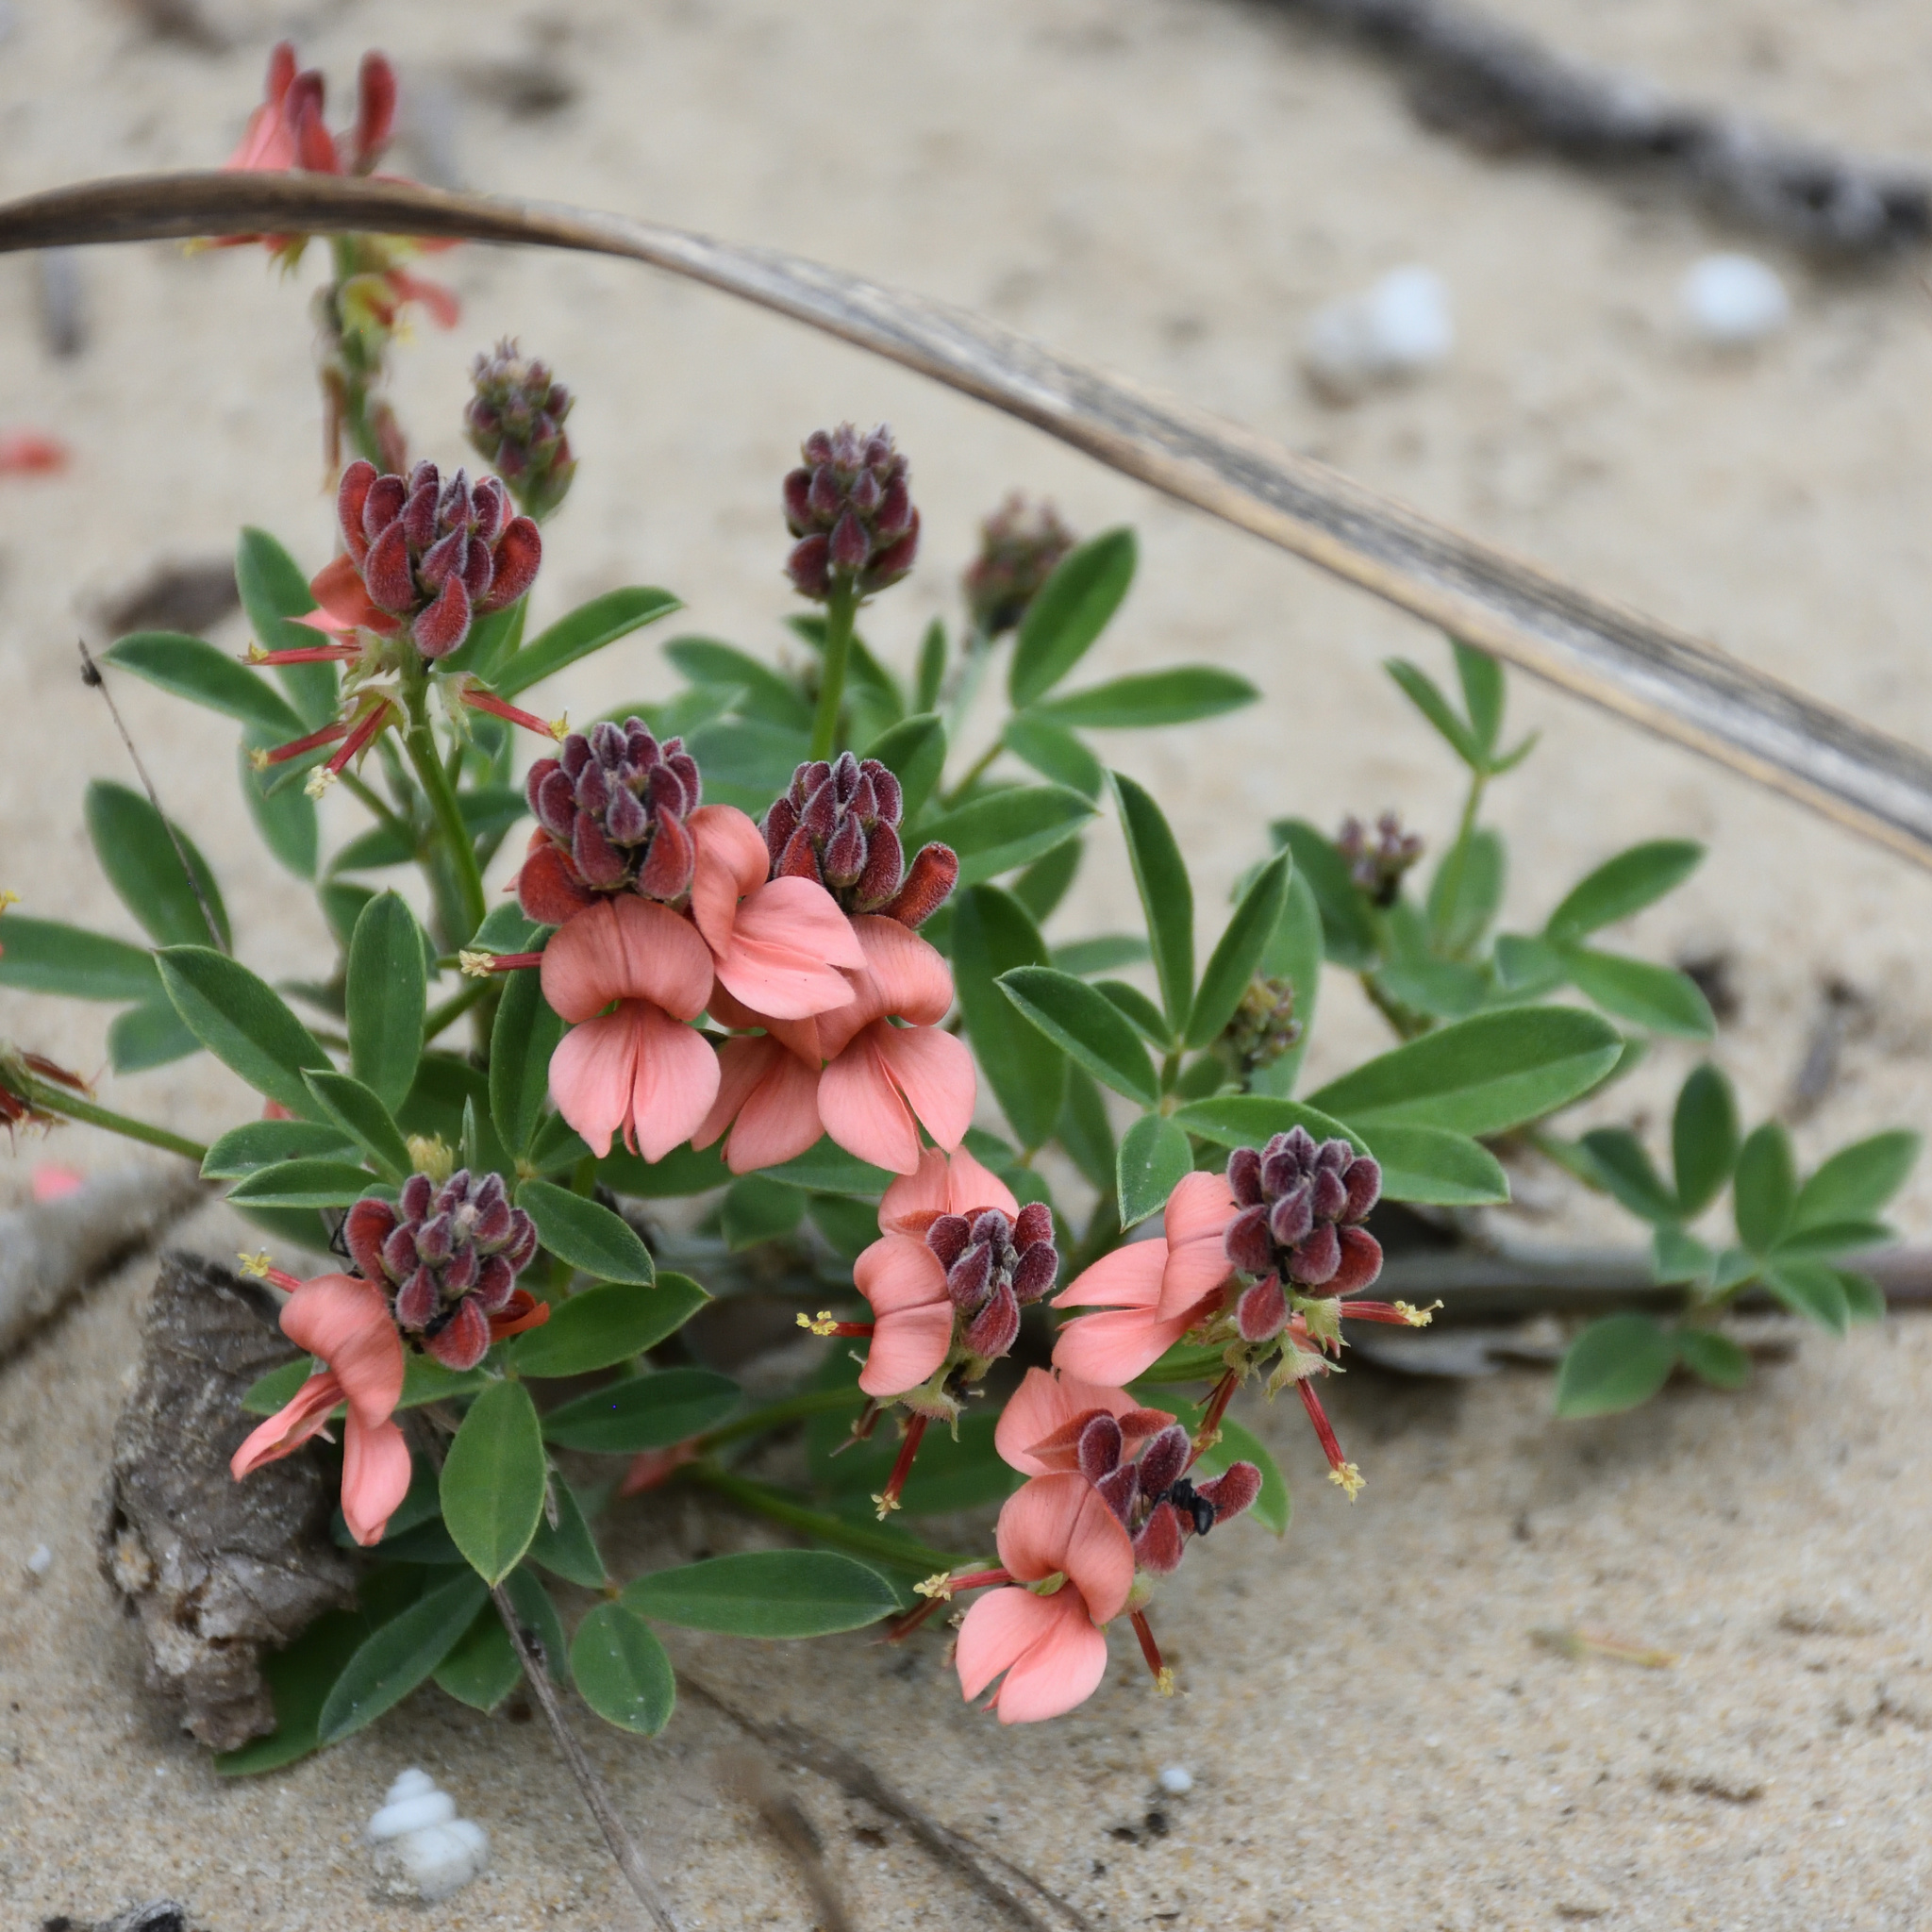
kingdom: Plantae
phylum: Tracheophyta
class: Magnoliopsida
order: Fabales
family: Fabaceae
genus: Indigofera
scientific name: Indigofera candicans
